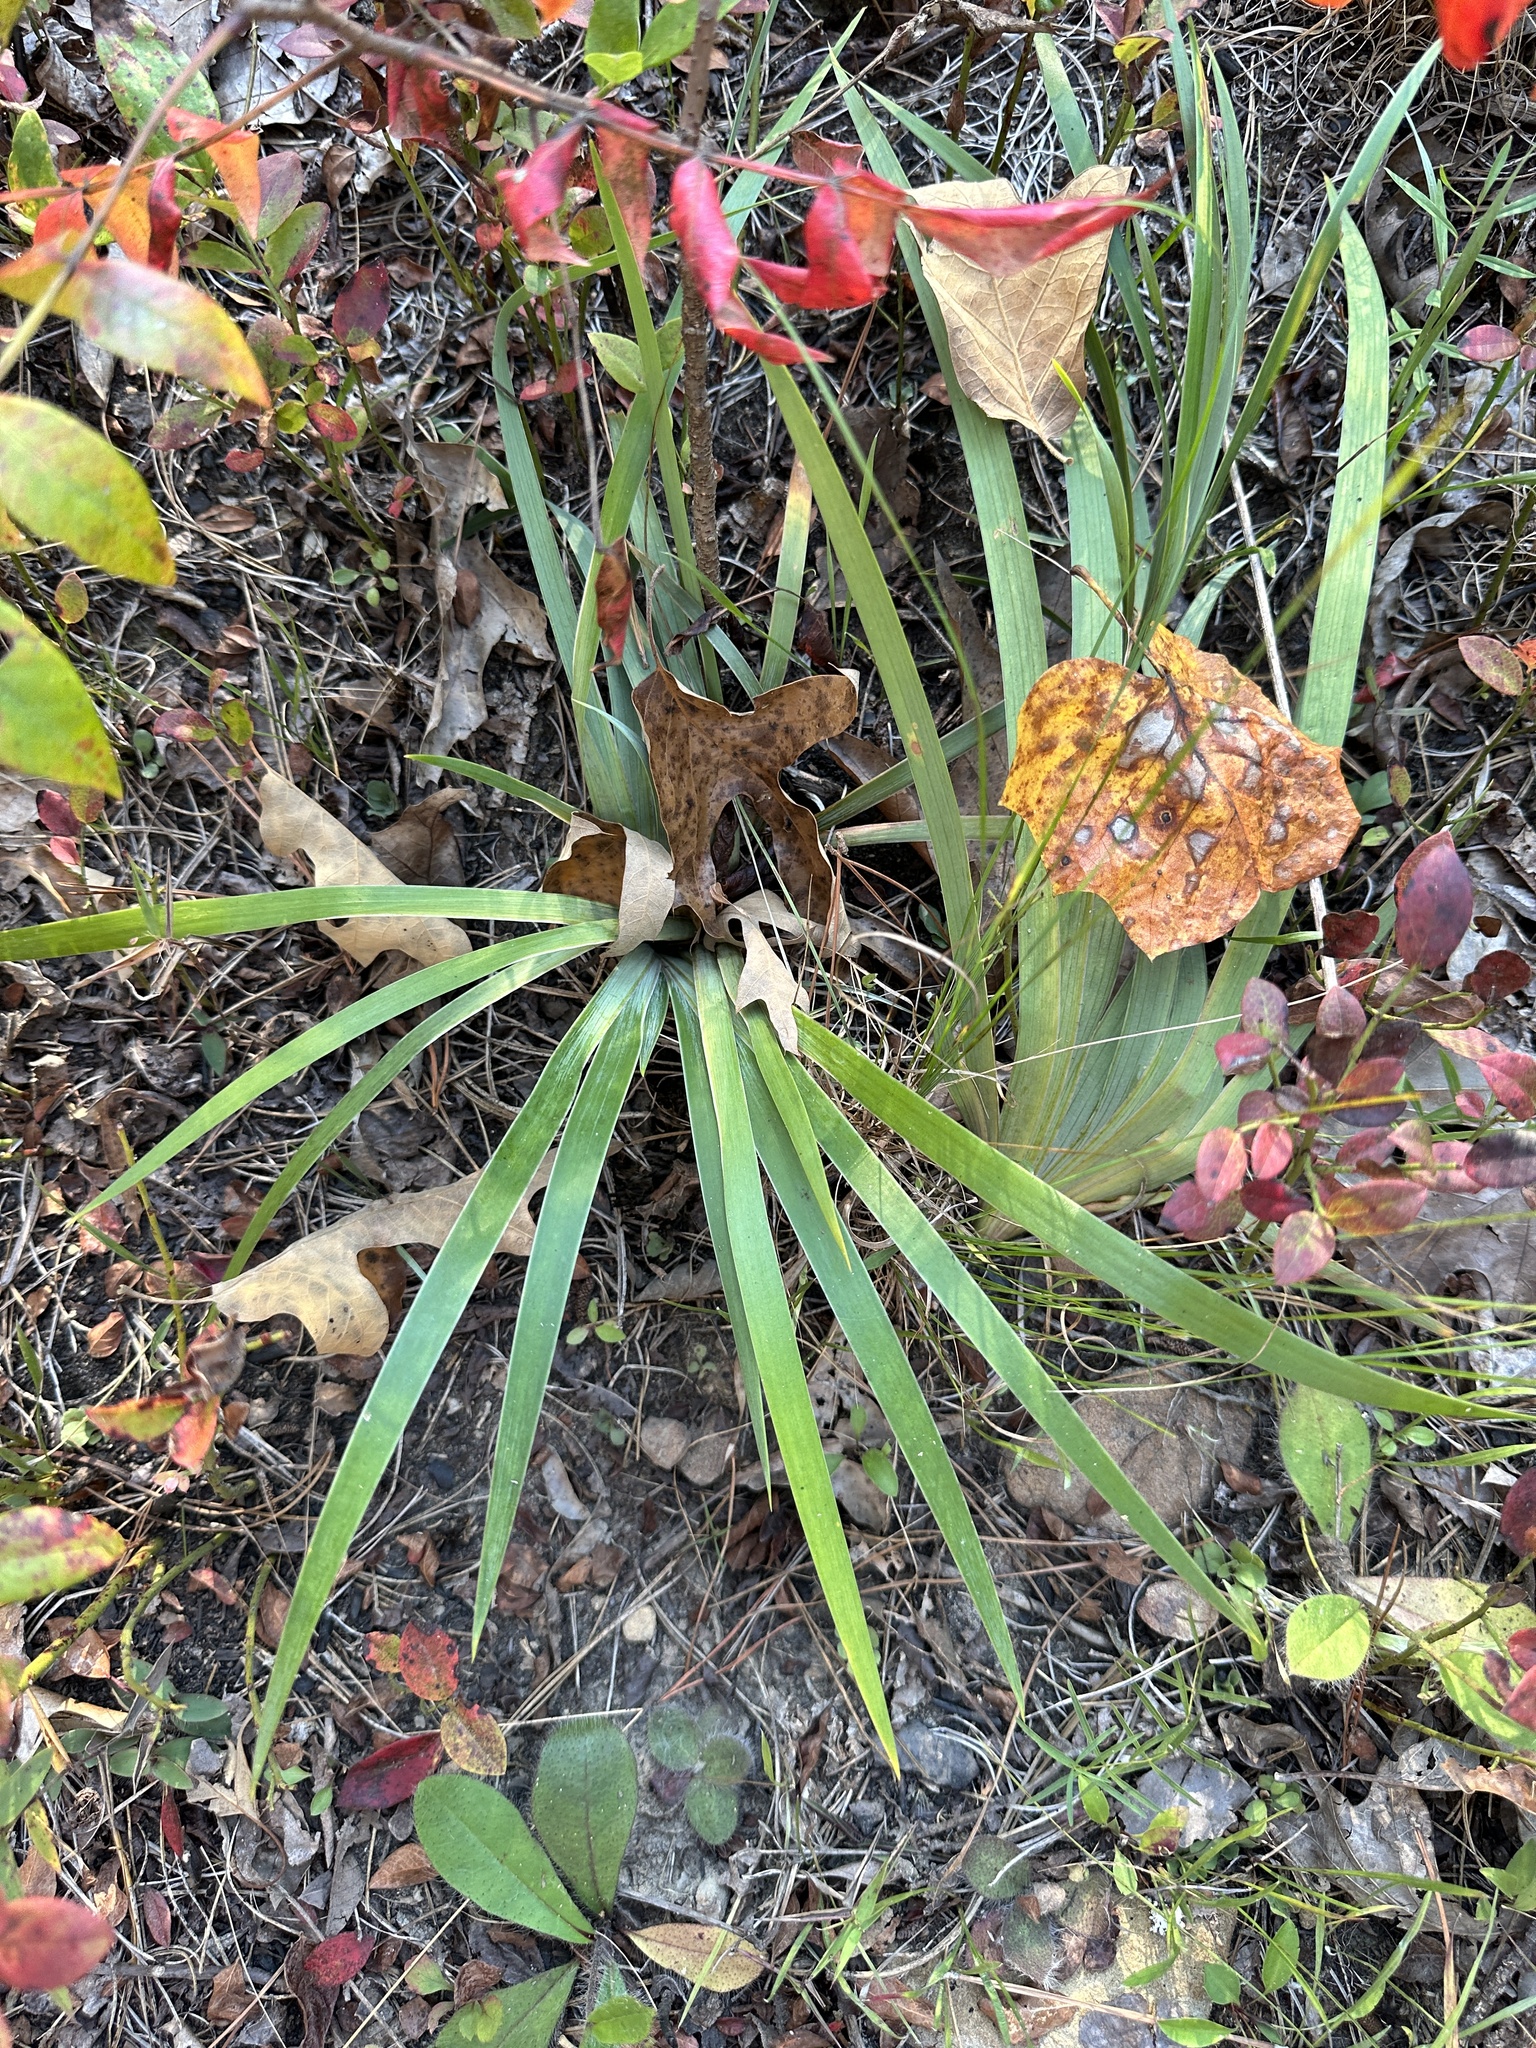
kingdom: Plantae
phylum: Tracheophyta
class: Liliopsida
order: Asparagales
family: Iridaceae
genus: Iris
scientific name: Iris verna
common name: Dwarf iris
